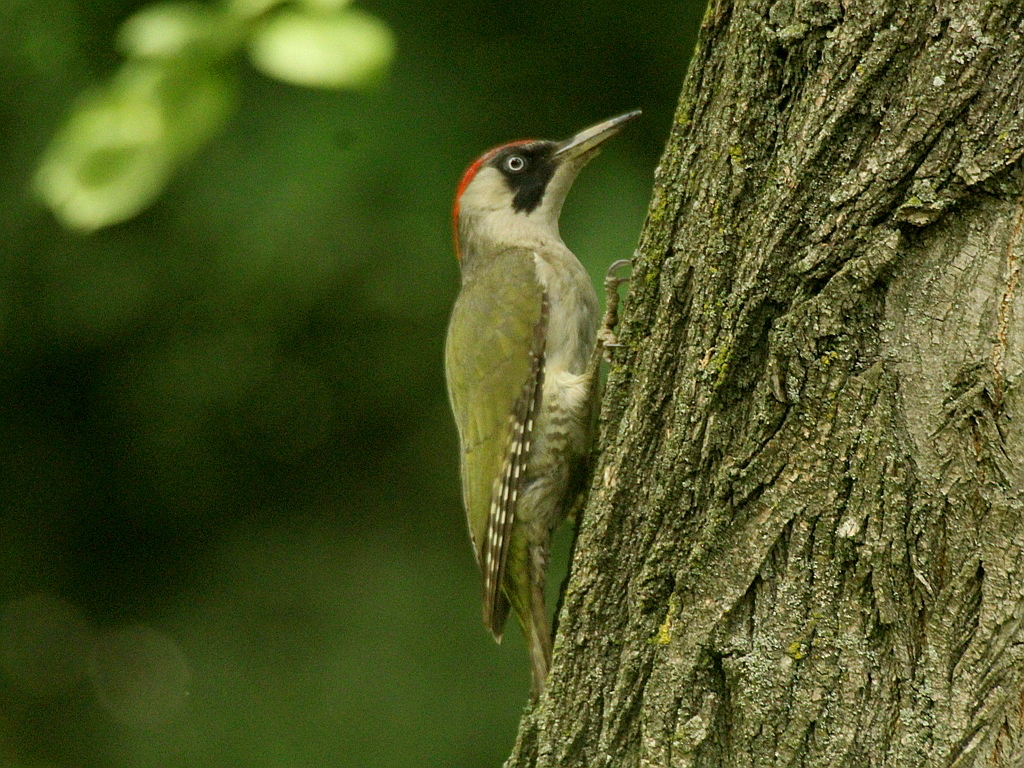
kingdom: Animalia
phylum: Chordata
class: Aves
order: Piciformes
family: Picidae
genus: Picus
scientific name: Picus viridis
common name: European green woodpecker
